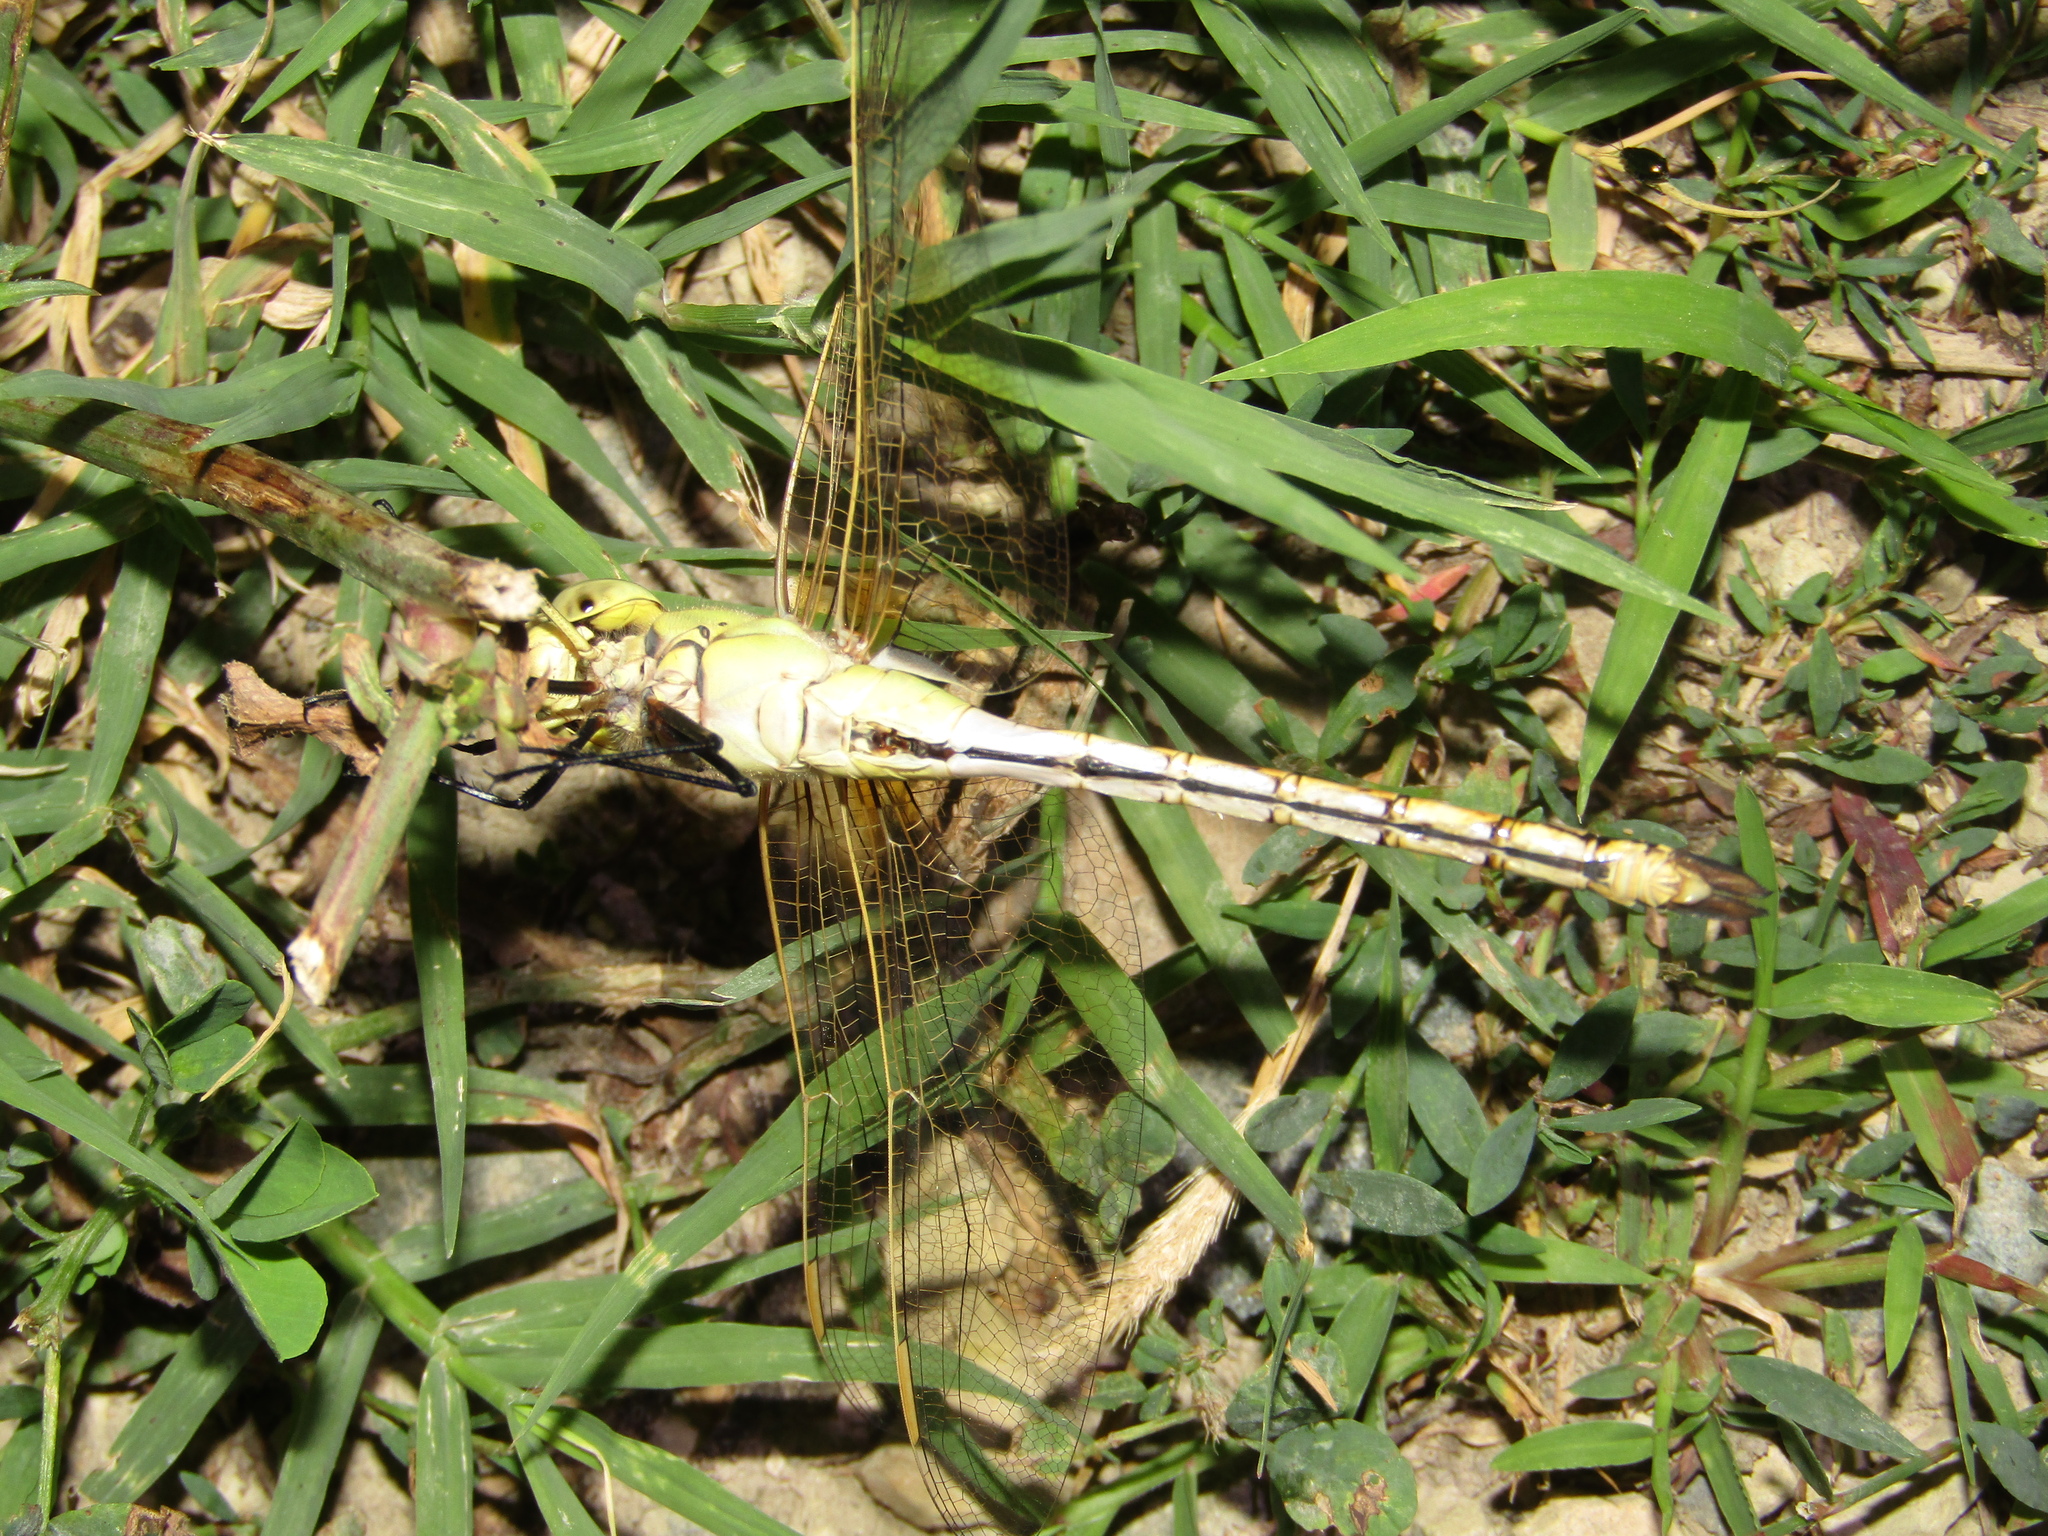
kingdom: Animalia
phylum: Arthropoda
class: Insecta
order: Odonata
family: Aeshnidae
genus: Anax
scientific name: Anax ephippiger
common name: Vagrant emperor
